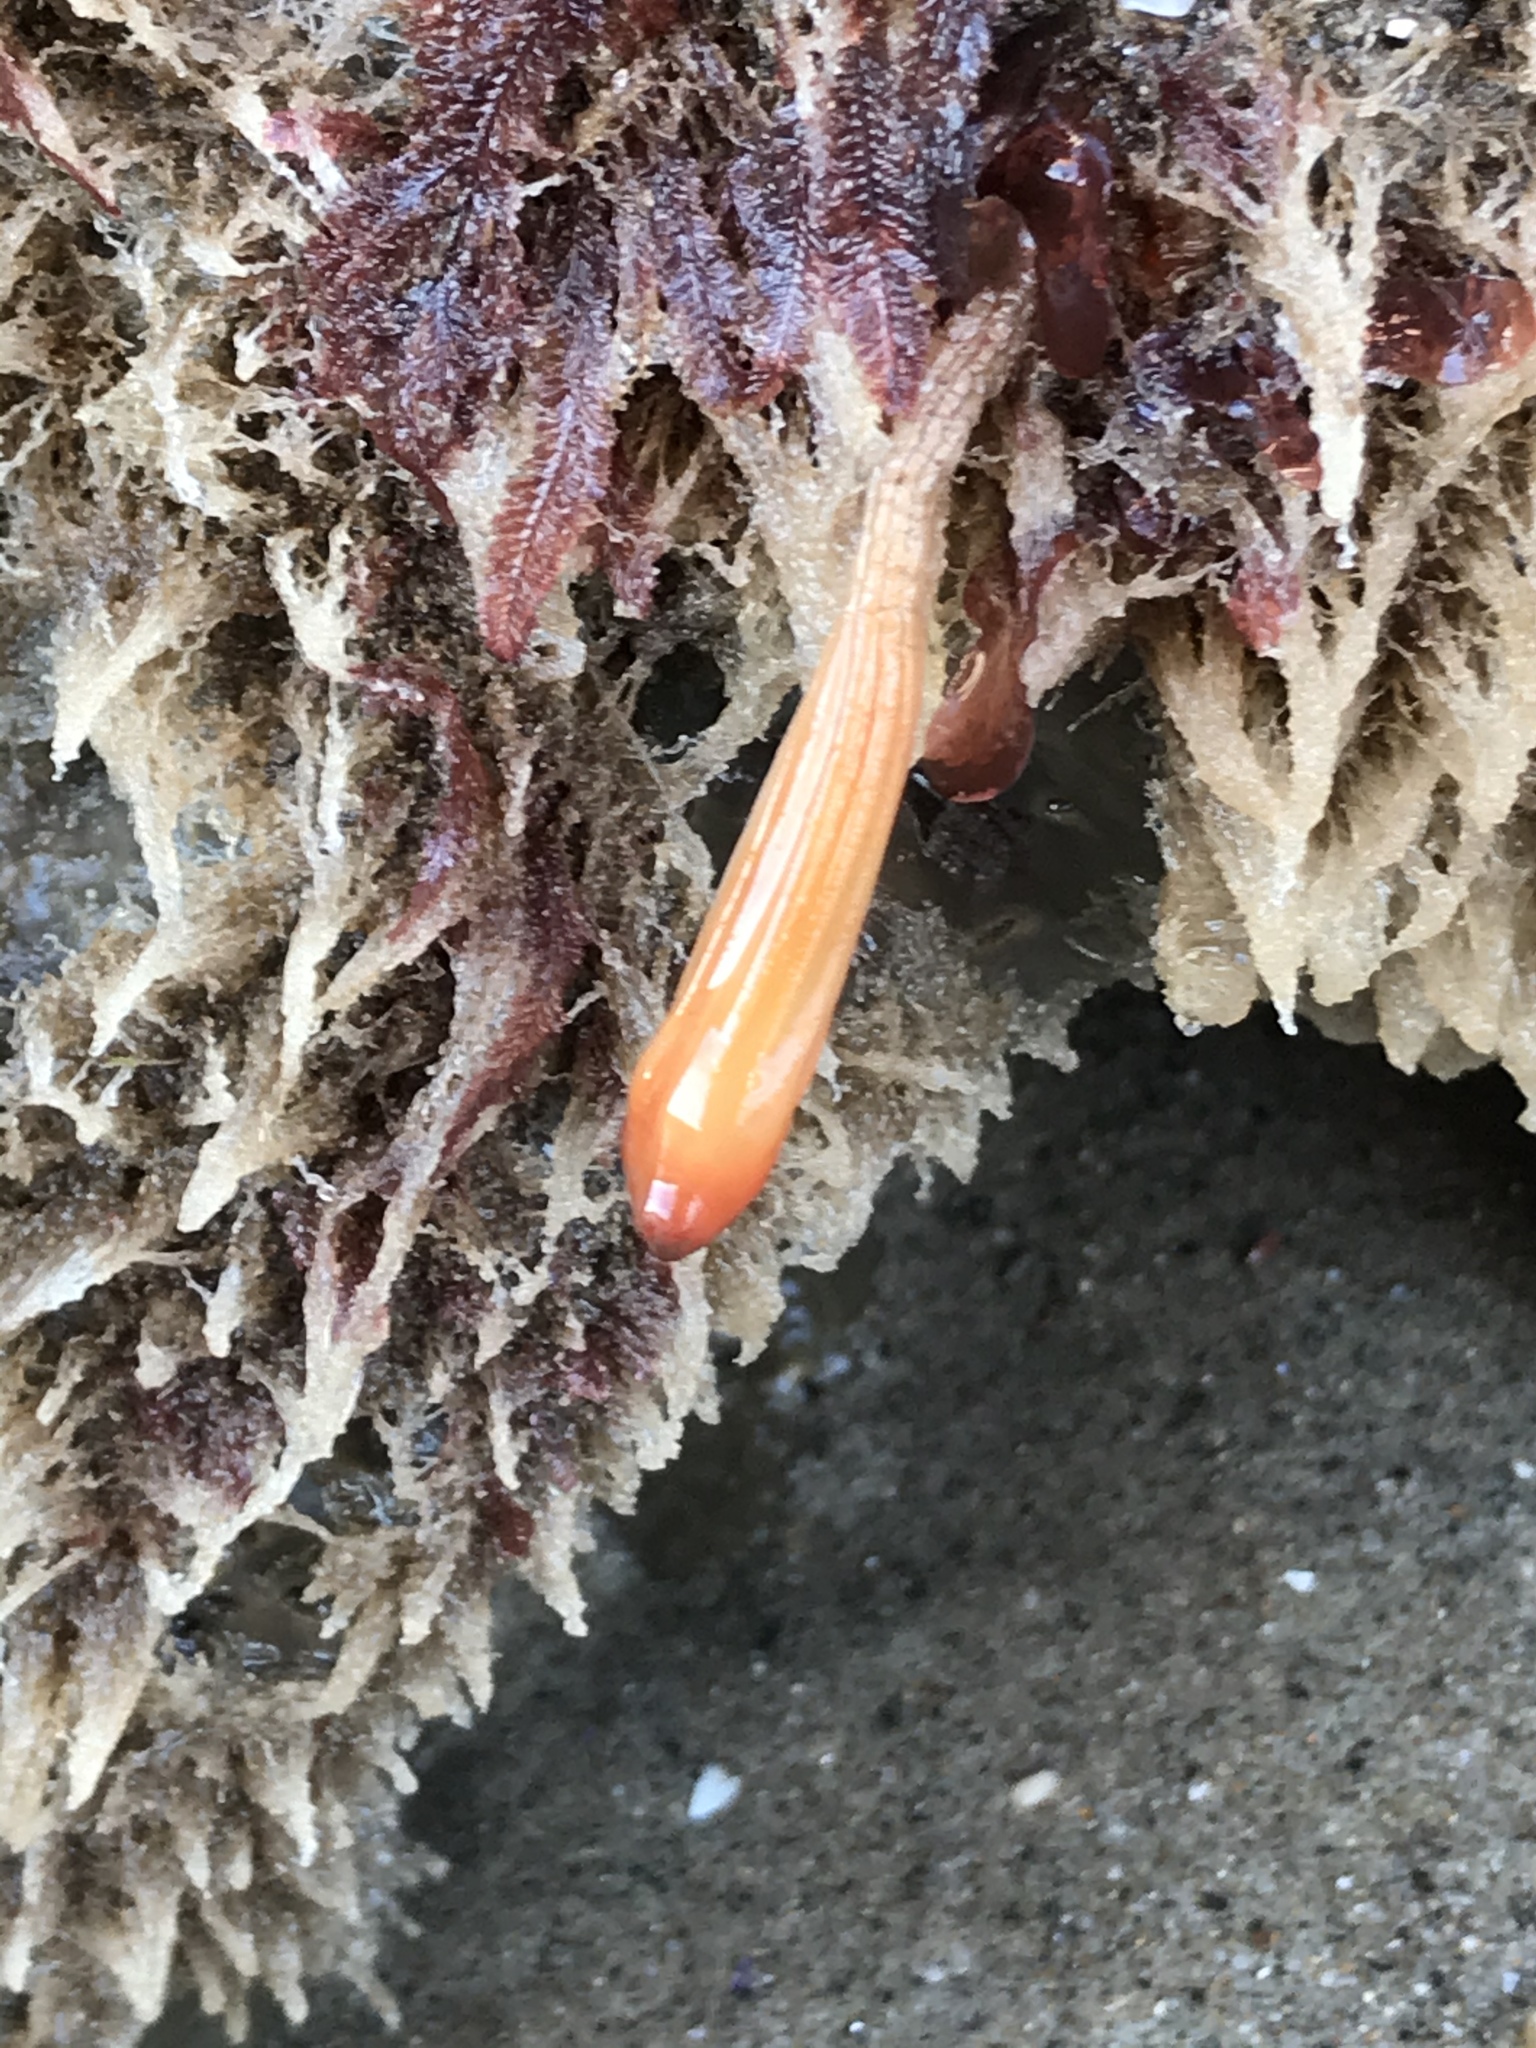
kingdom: Animalia
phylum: Chordata
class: Ascidiacea
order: Stolidobranchia
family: Styelidae
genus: Styela
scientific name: Styela montereyensis
